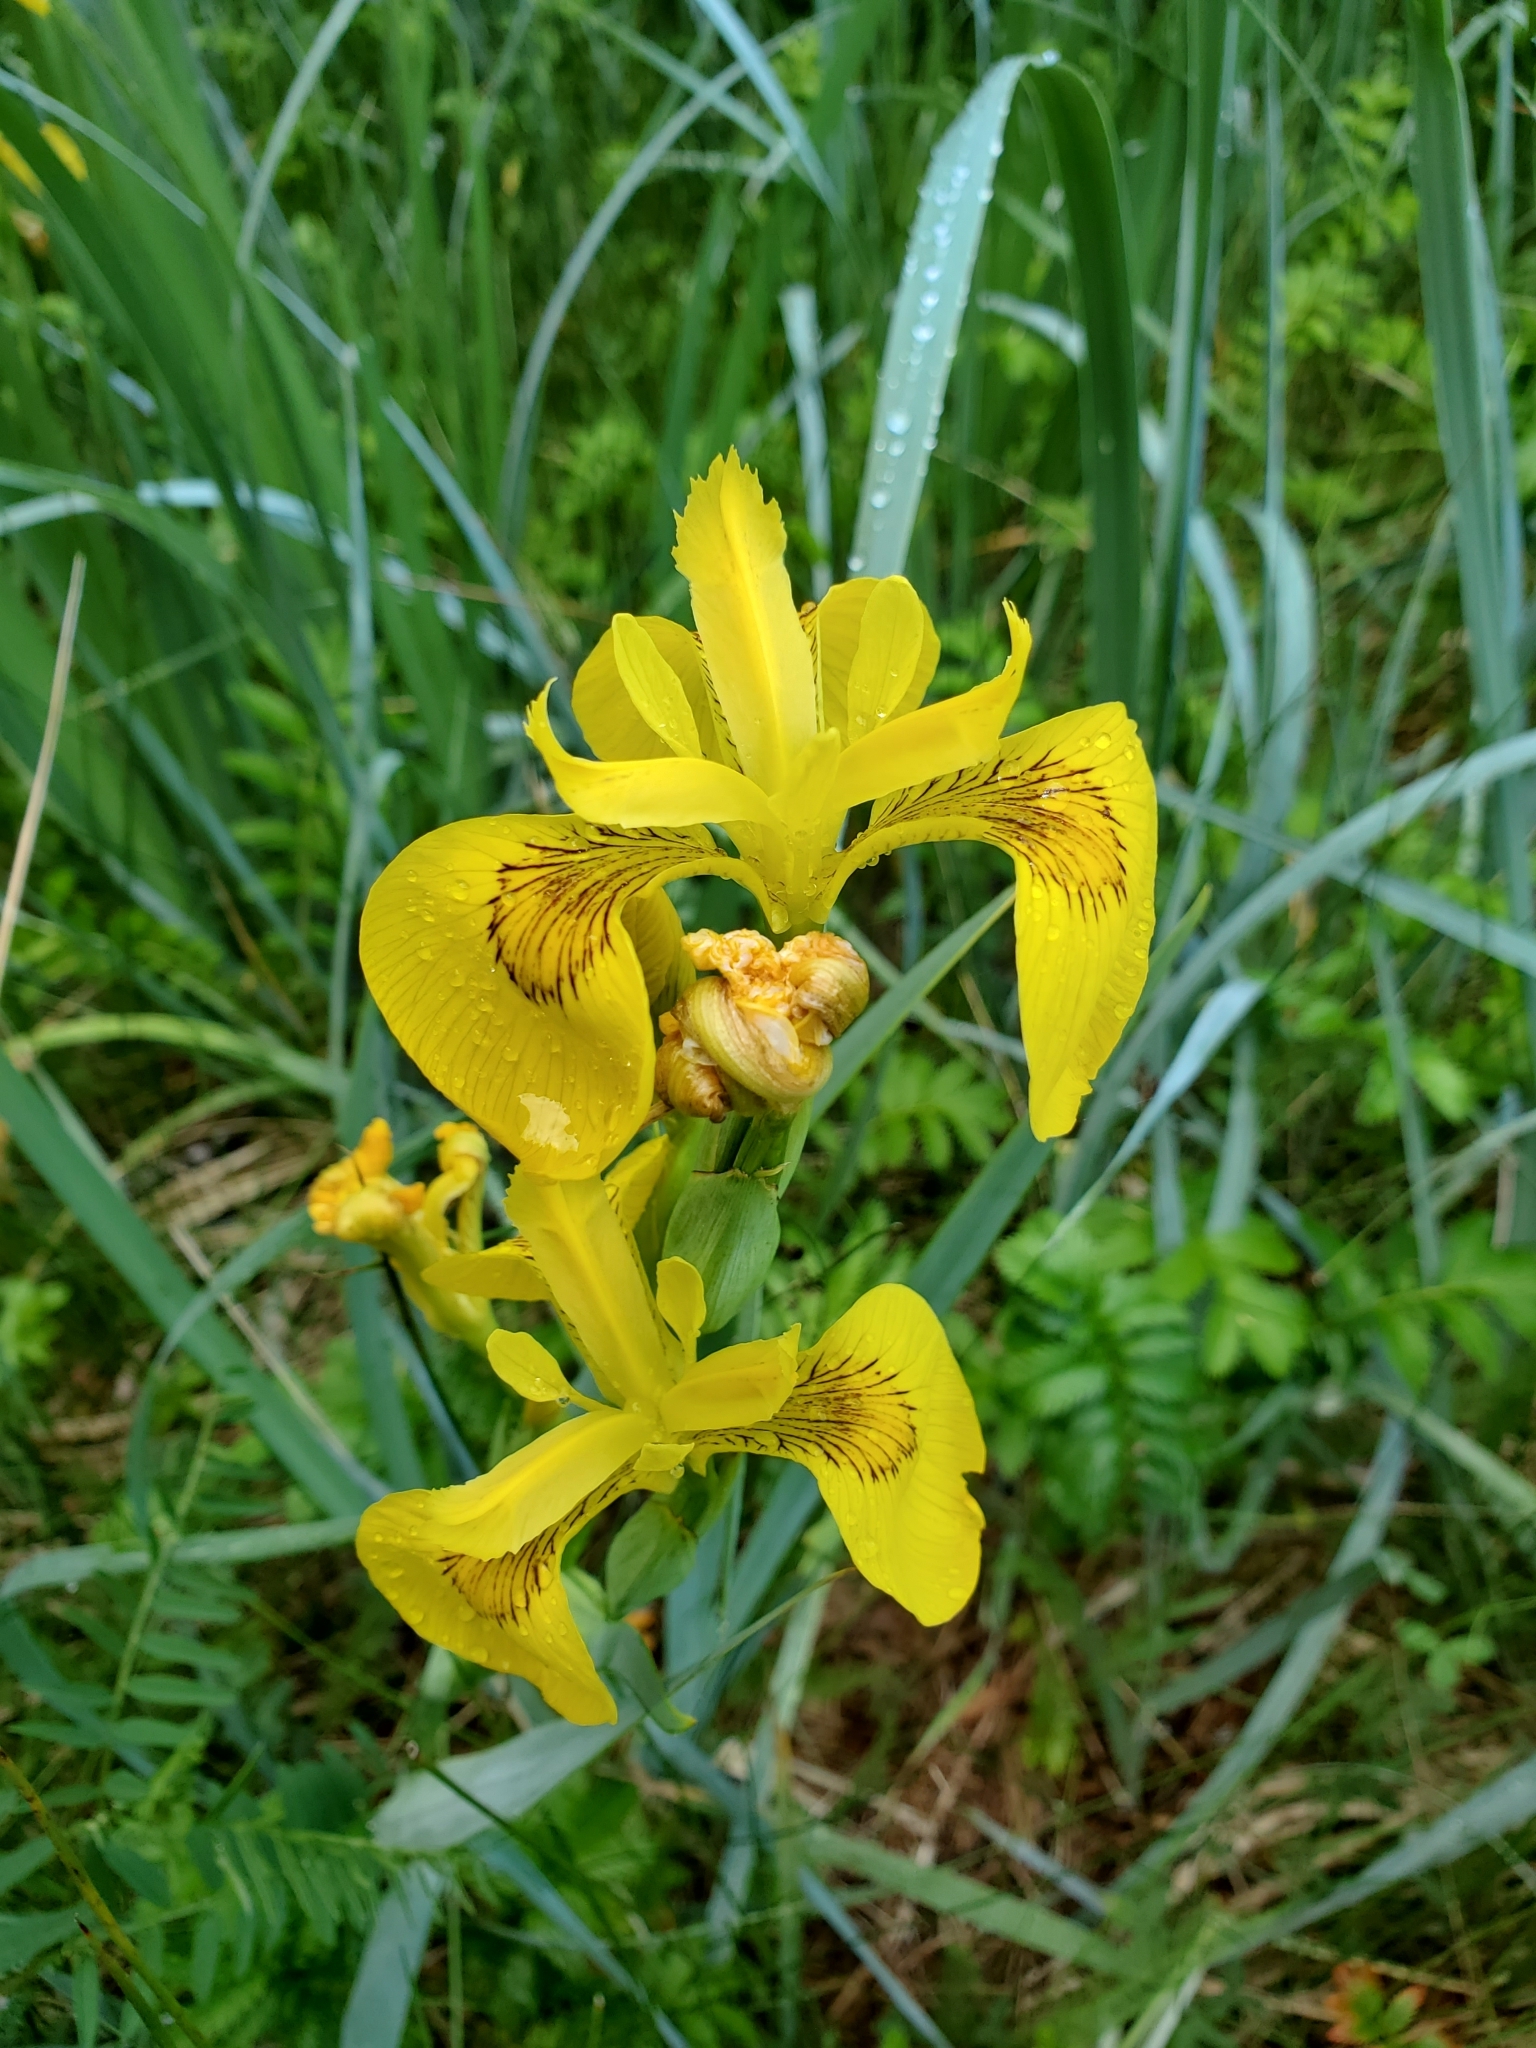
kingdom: Plantae
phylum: Tracheophyta
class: Liliopsida
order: Asparagales
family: Iridaceae
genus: Iris
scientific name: Iris pseudacorus
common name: Yellow flag
